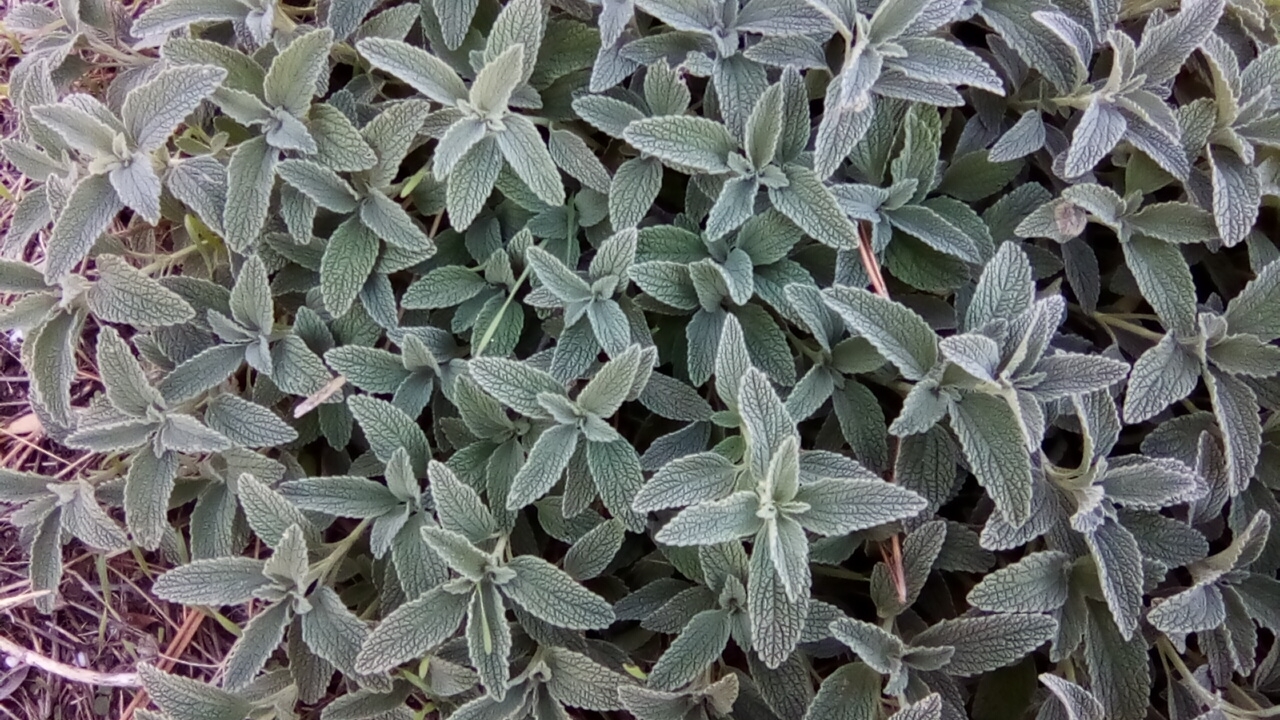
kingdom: Plantae
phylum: Tracheophyta
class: Magnoliopsida
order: Lamiales
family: Lamiaceae
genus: Marrubium
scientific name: Marrubium peregrinum
